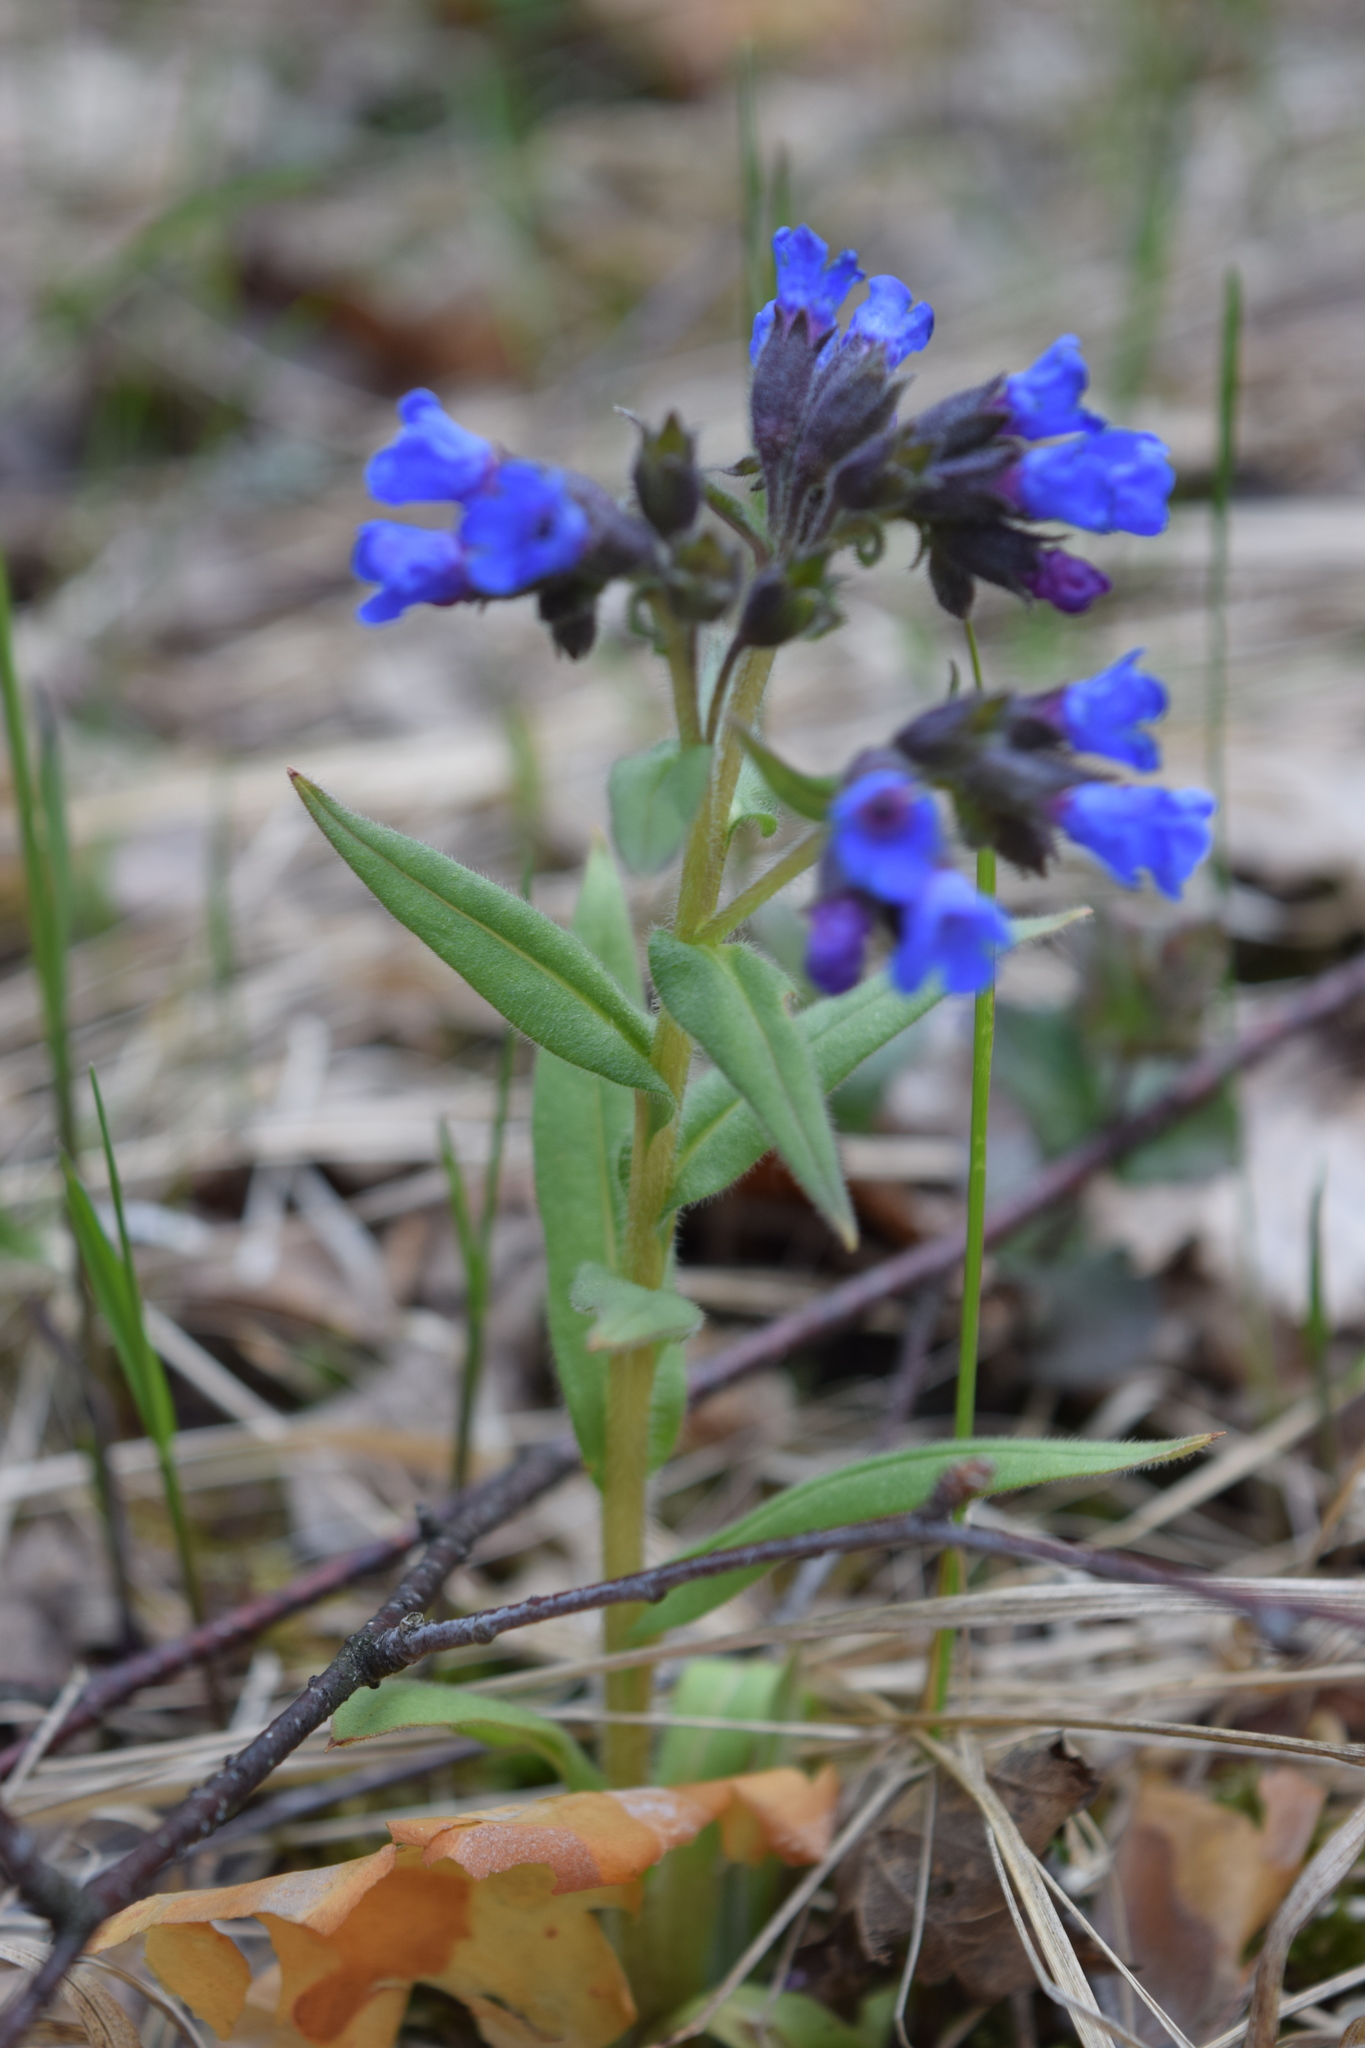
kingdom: Plantae
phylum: Tracheophyta
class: Magnoliopsida
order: Boraginales
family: Boraginaceae
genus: Pulmonaria
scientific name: Pulmonaria angustifolia
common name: Blue cowslip
